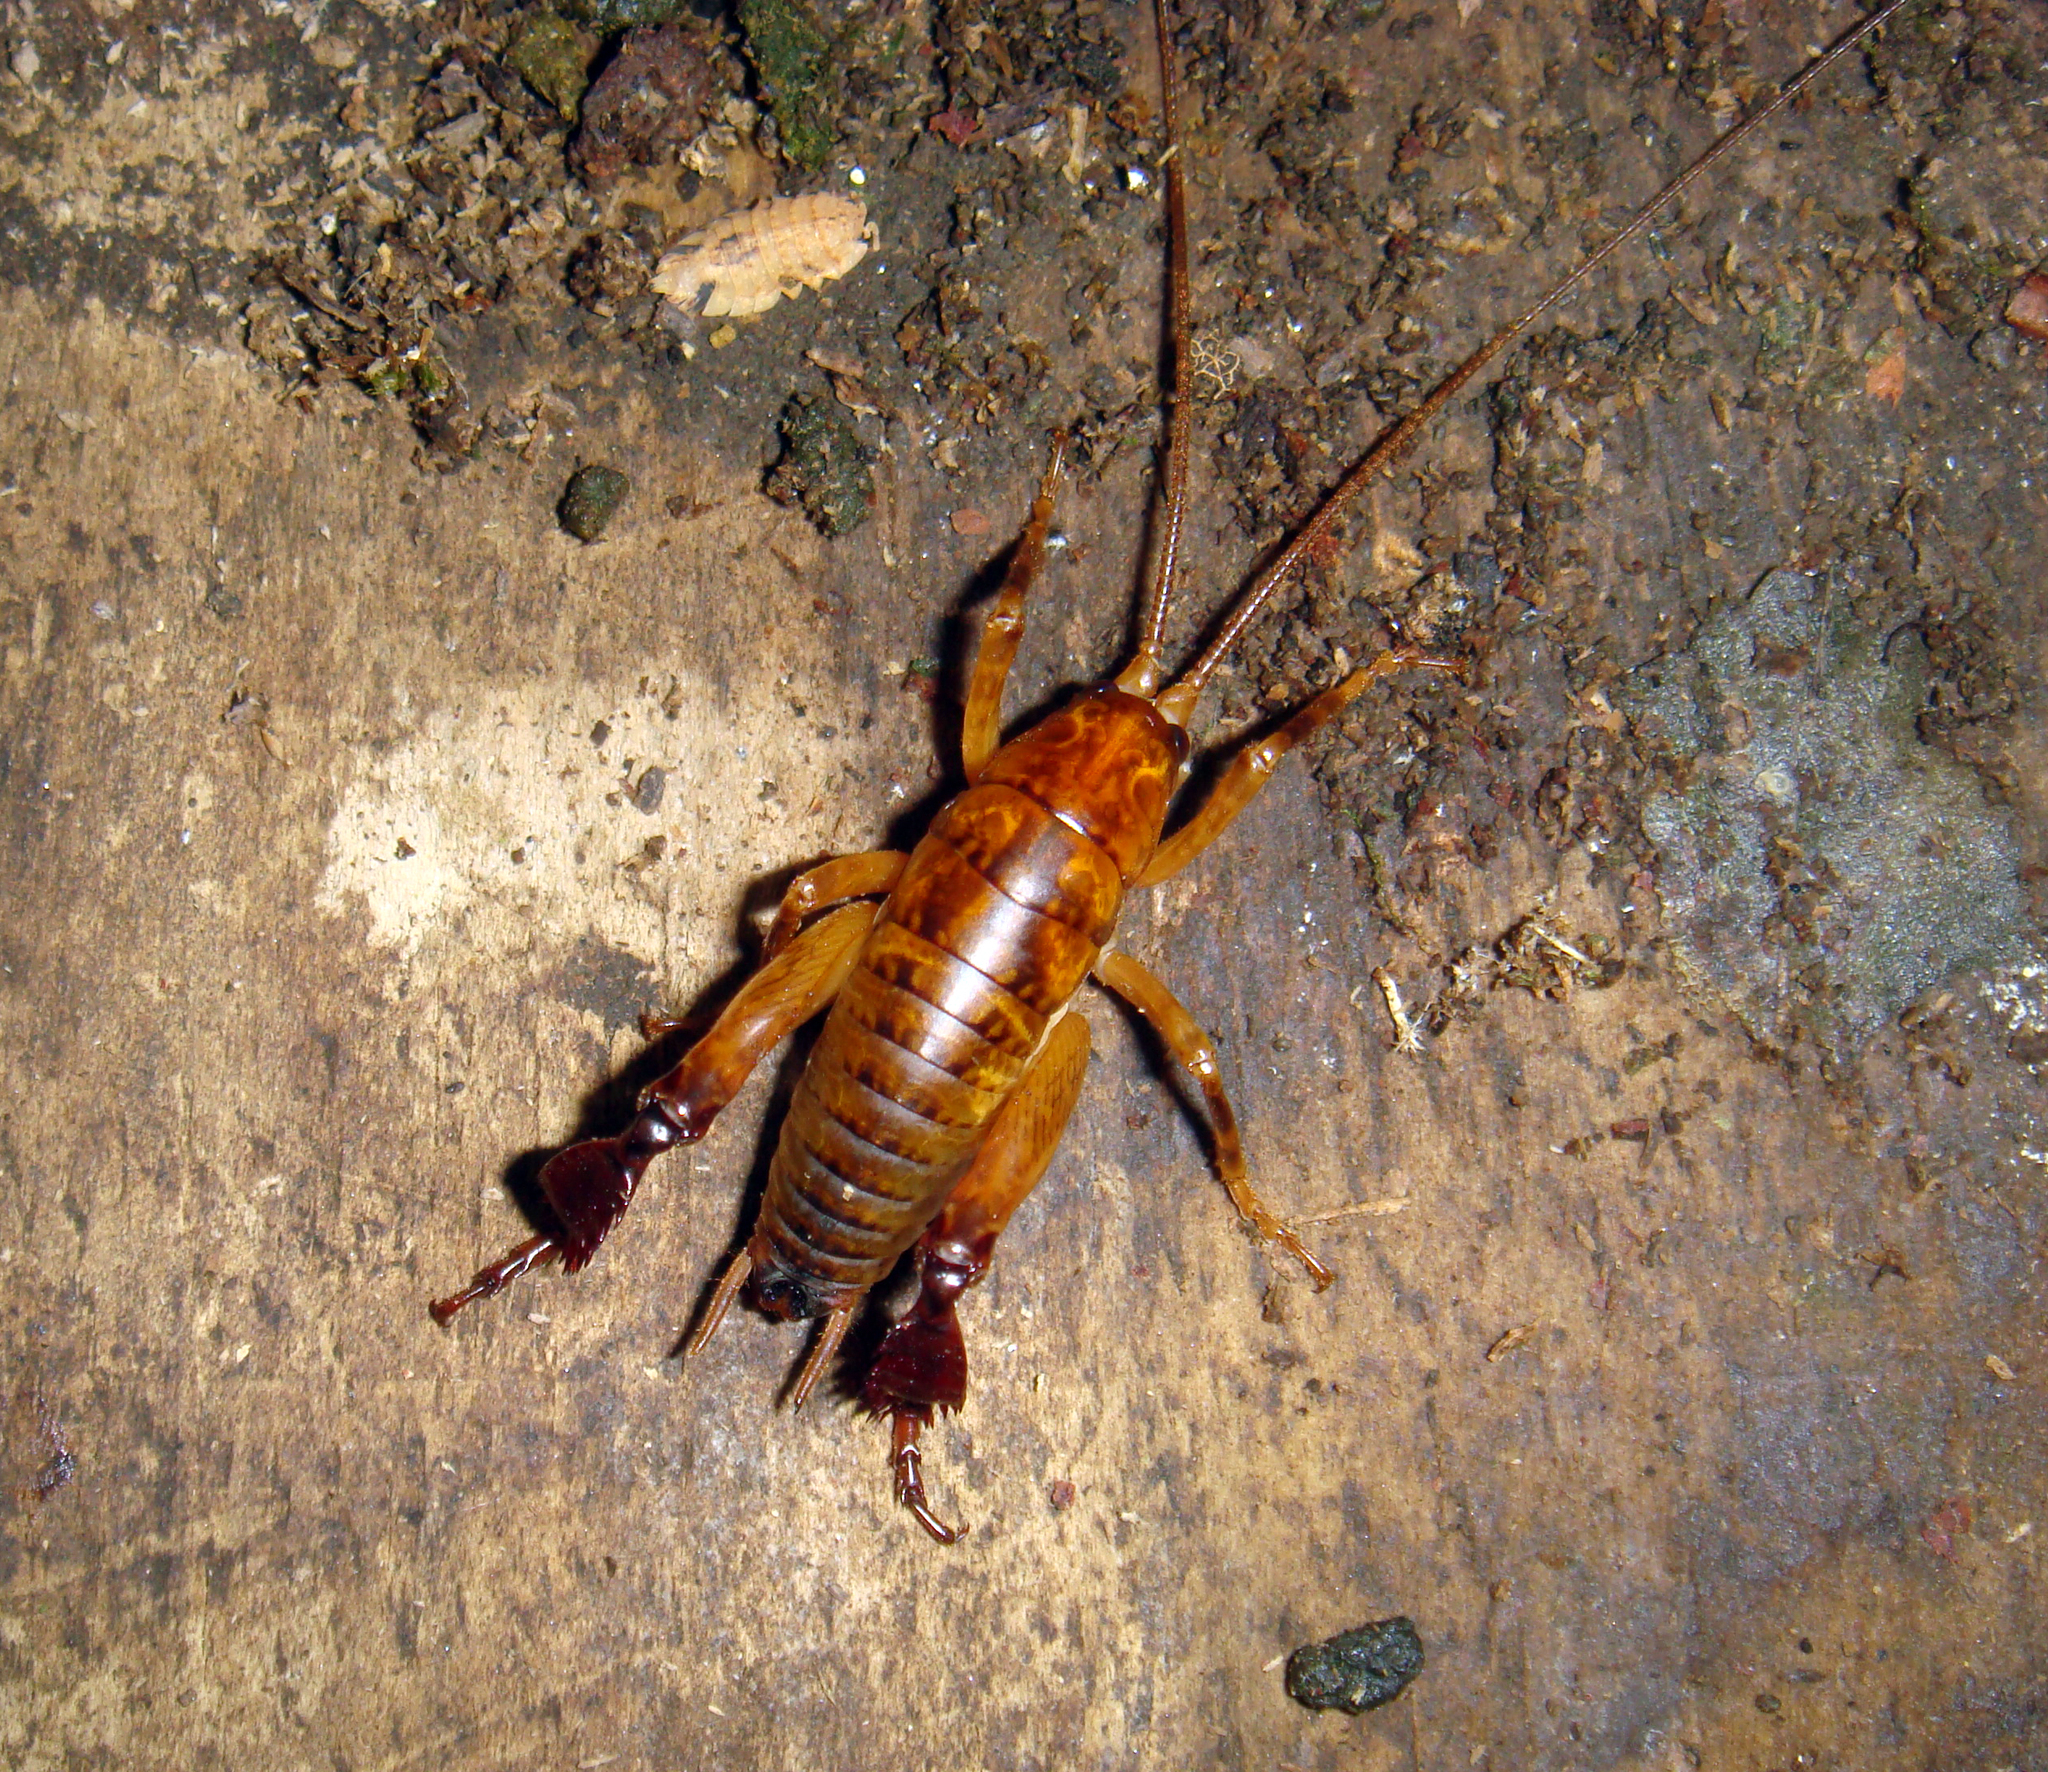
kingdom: Animalia
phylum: Arthropoda
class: Insecta
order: Orthoptera
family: Rhaphidophoridae
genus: Talitropsis
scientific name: Talitropsis megatibia
